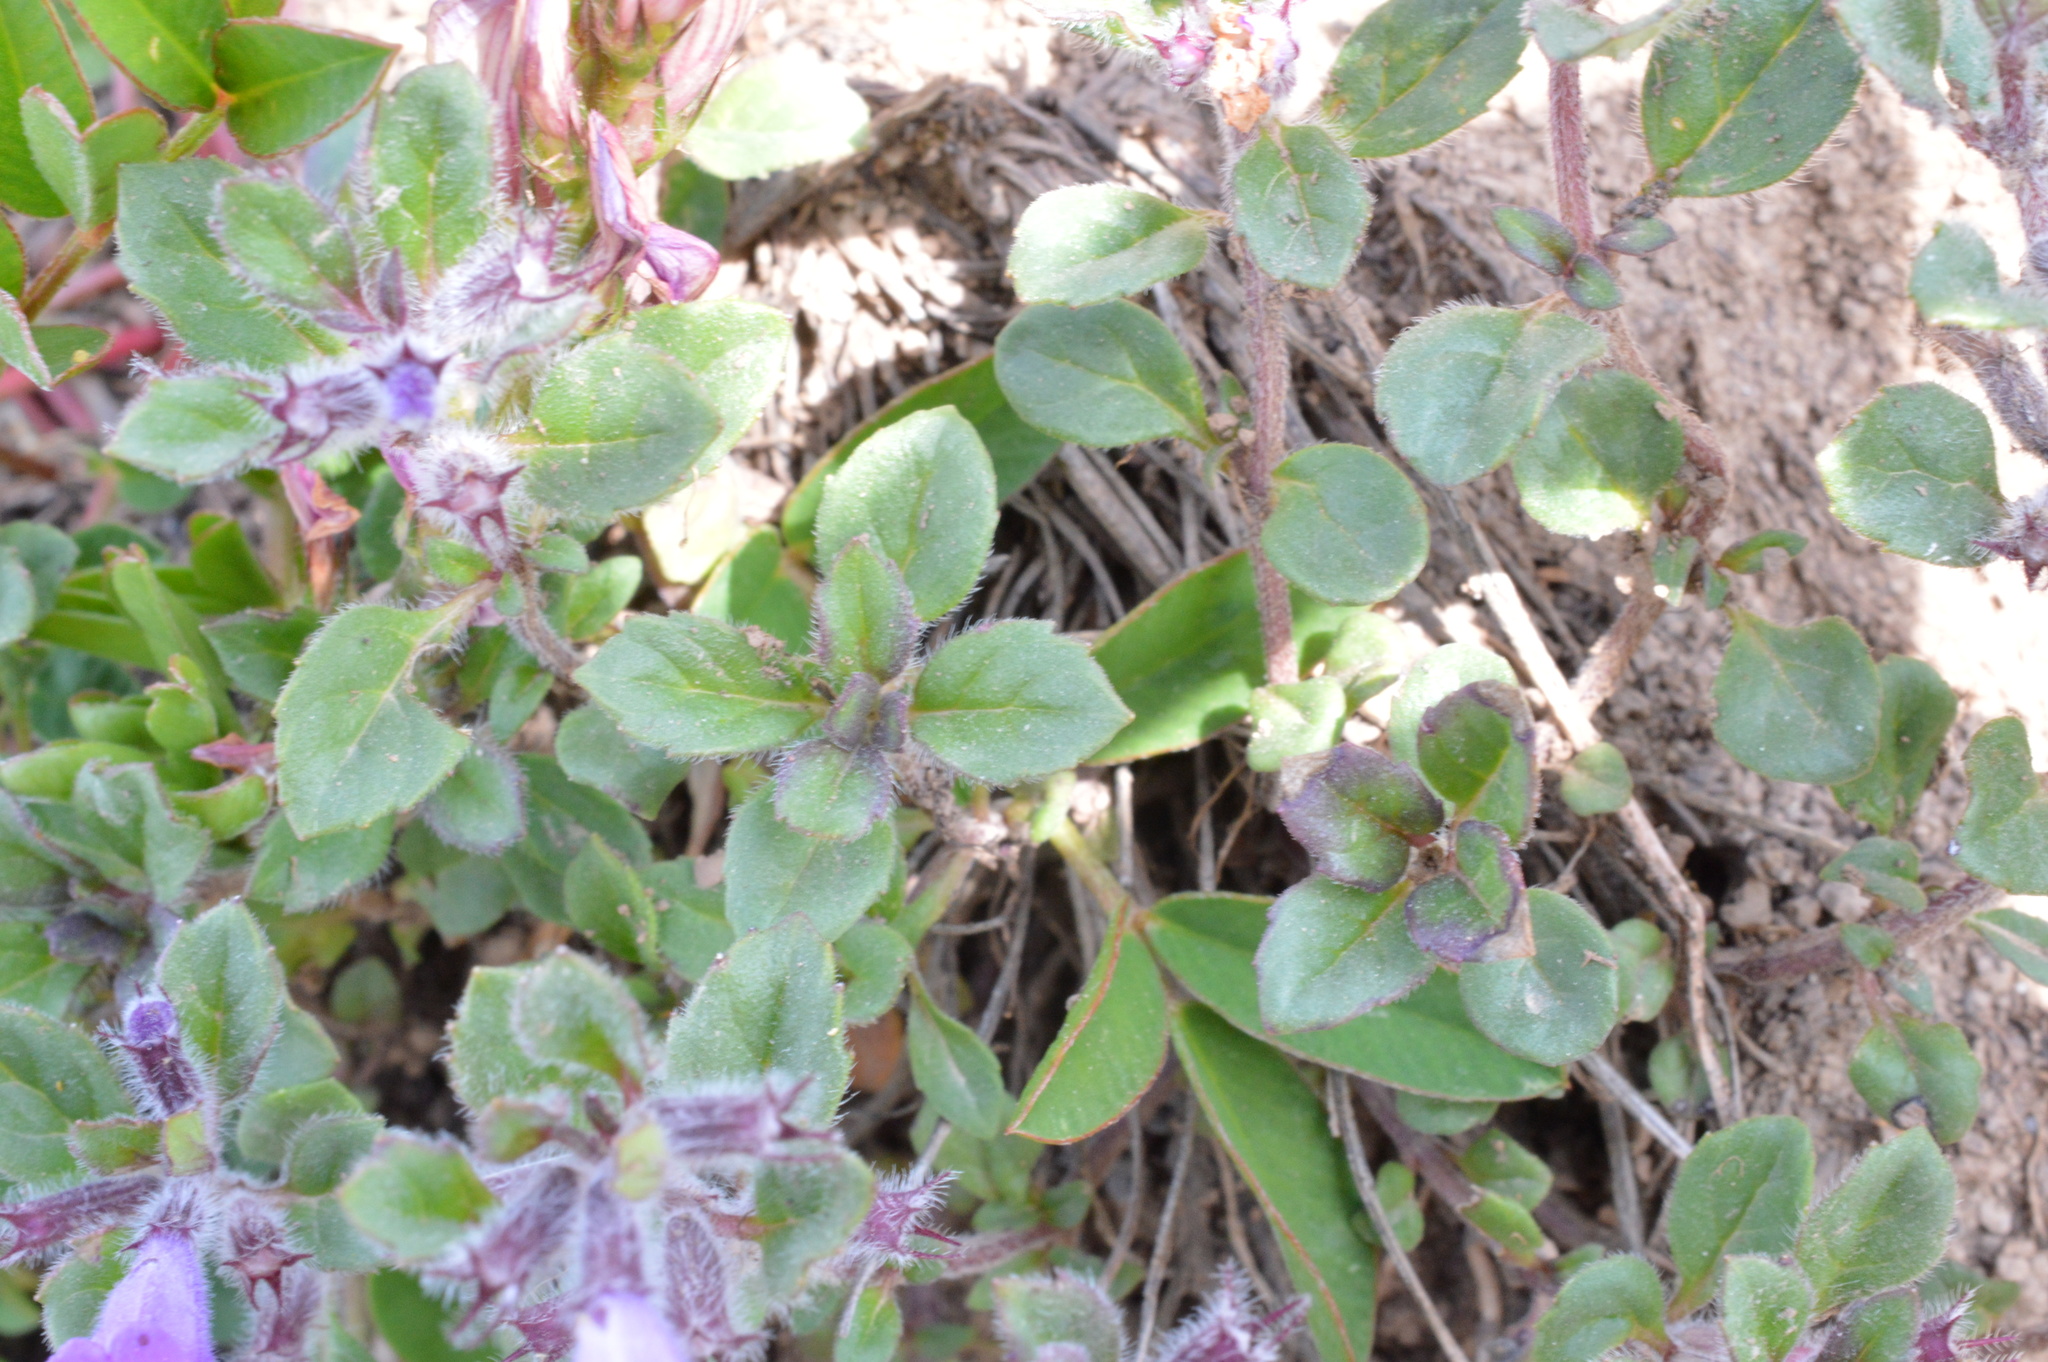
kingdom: Plantae
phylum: Tracheophyta
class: Magnoliopsida
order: Lamiales
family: Lamiaceae
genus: Clinopodium
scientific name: Clinopodium alpinum
